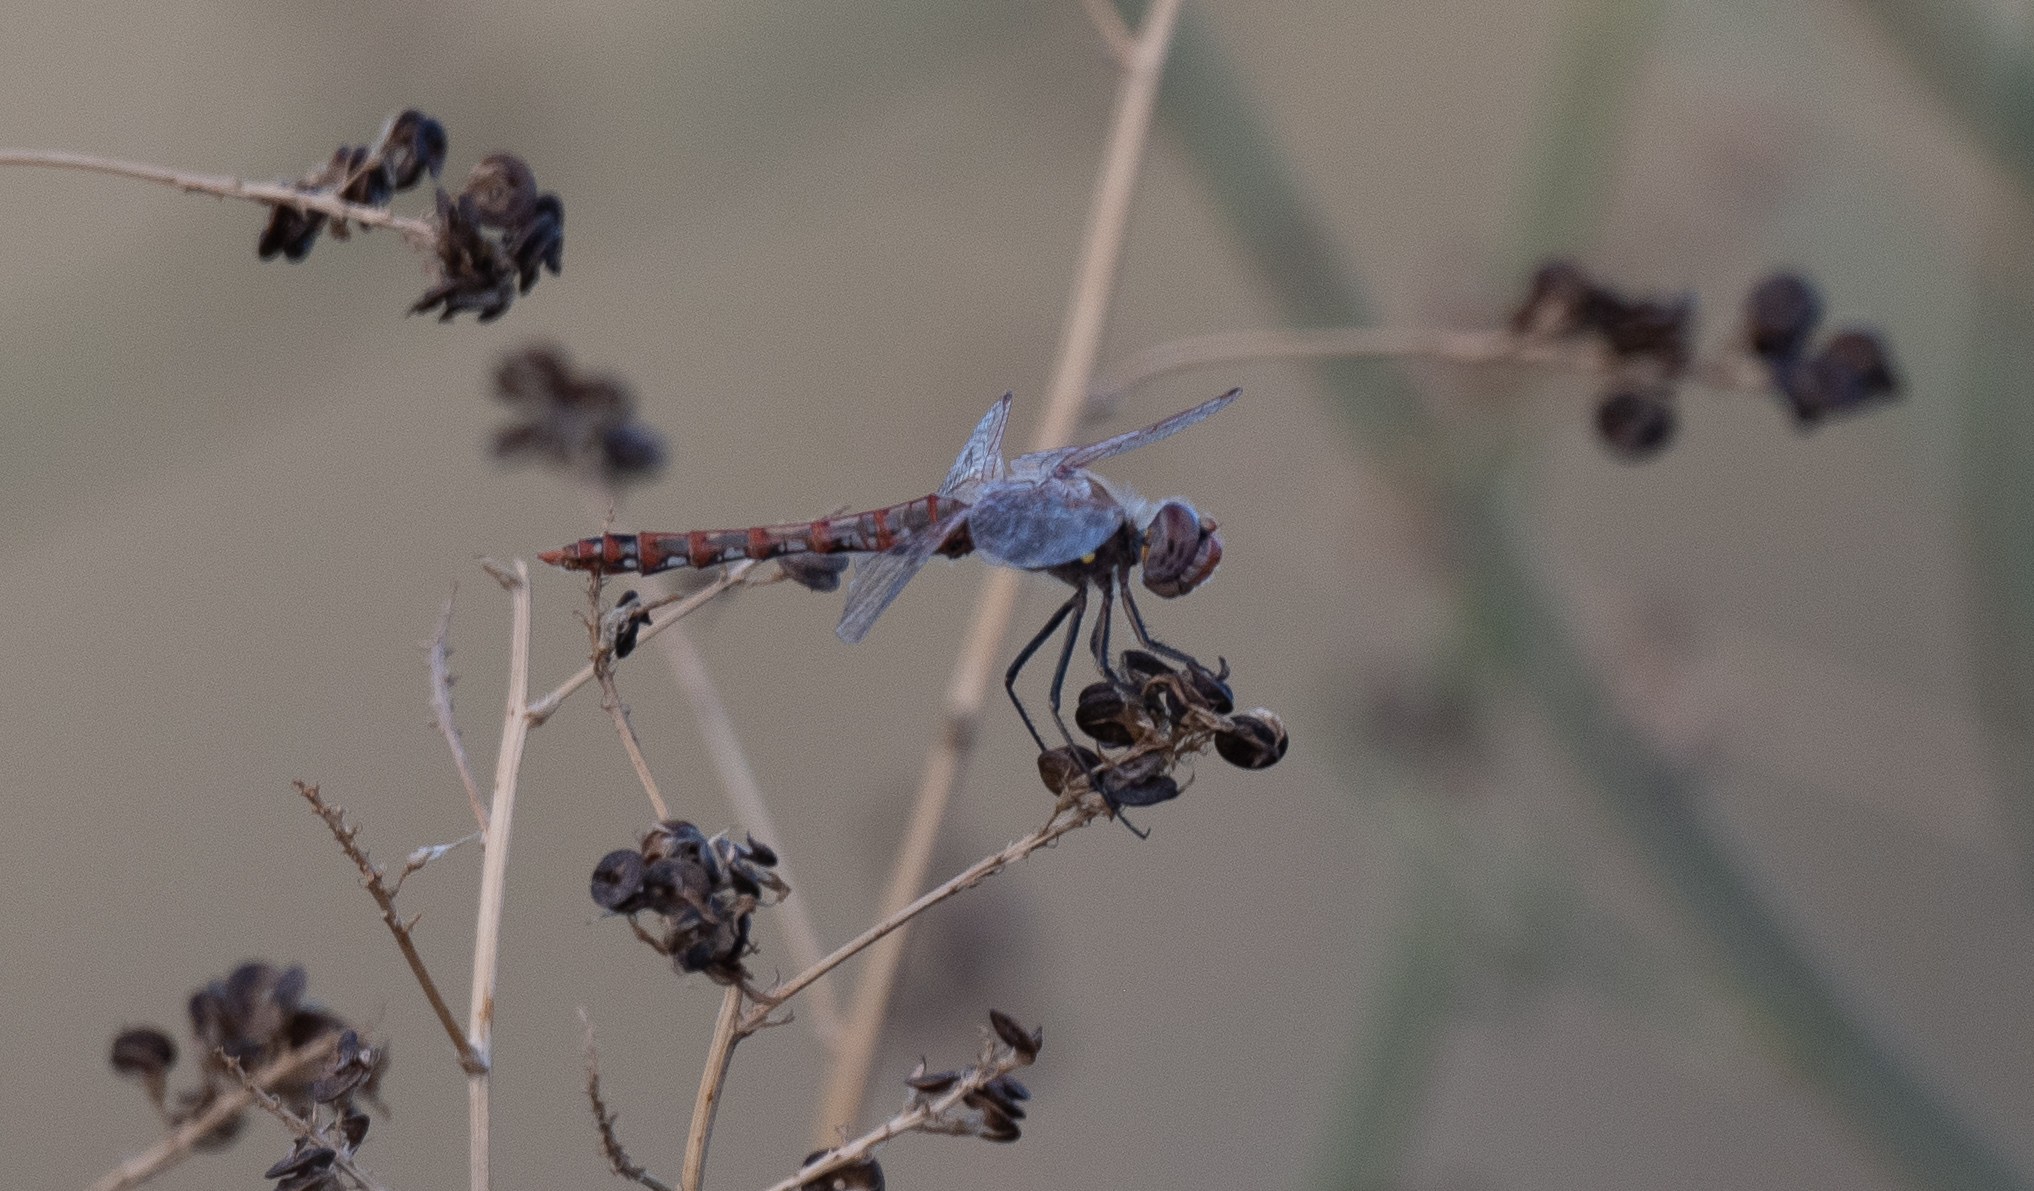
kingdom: Animalia
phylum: Arthropoda
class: Insecta
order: Odonata
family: Libellulidae
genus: Sympetrum
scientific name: Sympetrum corruptum
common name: Variegated meadowhawk
